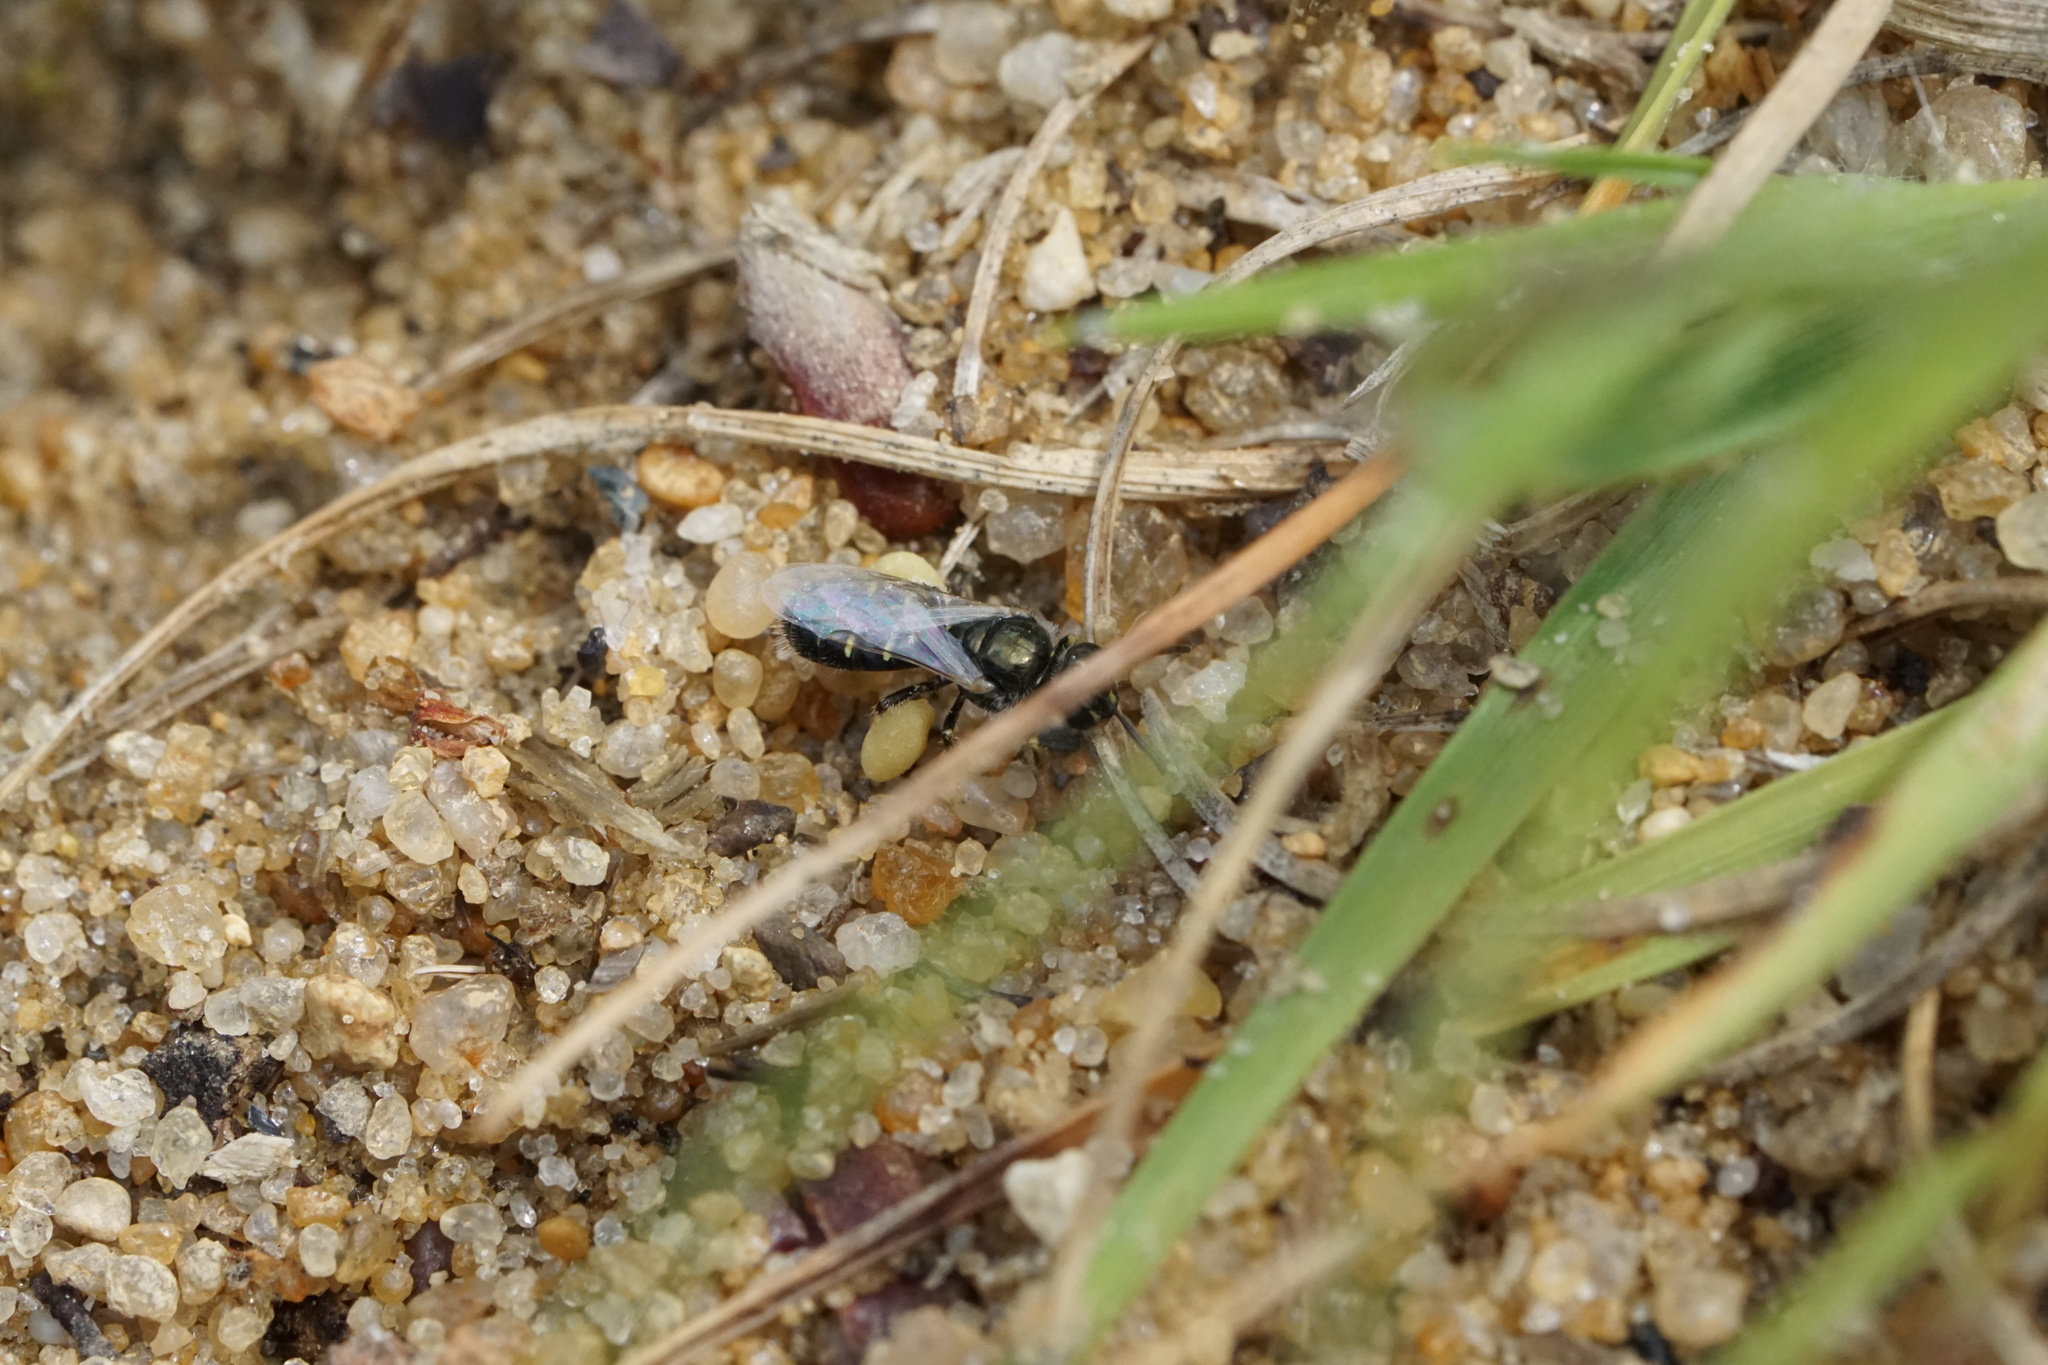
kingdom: Animalia
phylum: Arthropoda
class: Insecta
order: Hymenoptera
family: Andrenidae
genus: Perdita
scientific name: Perdita bradleyi
